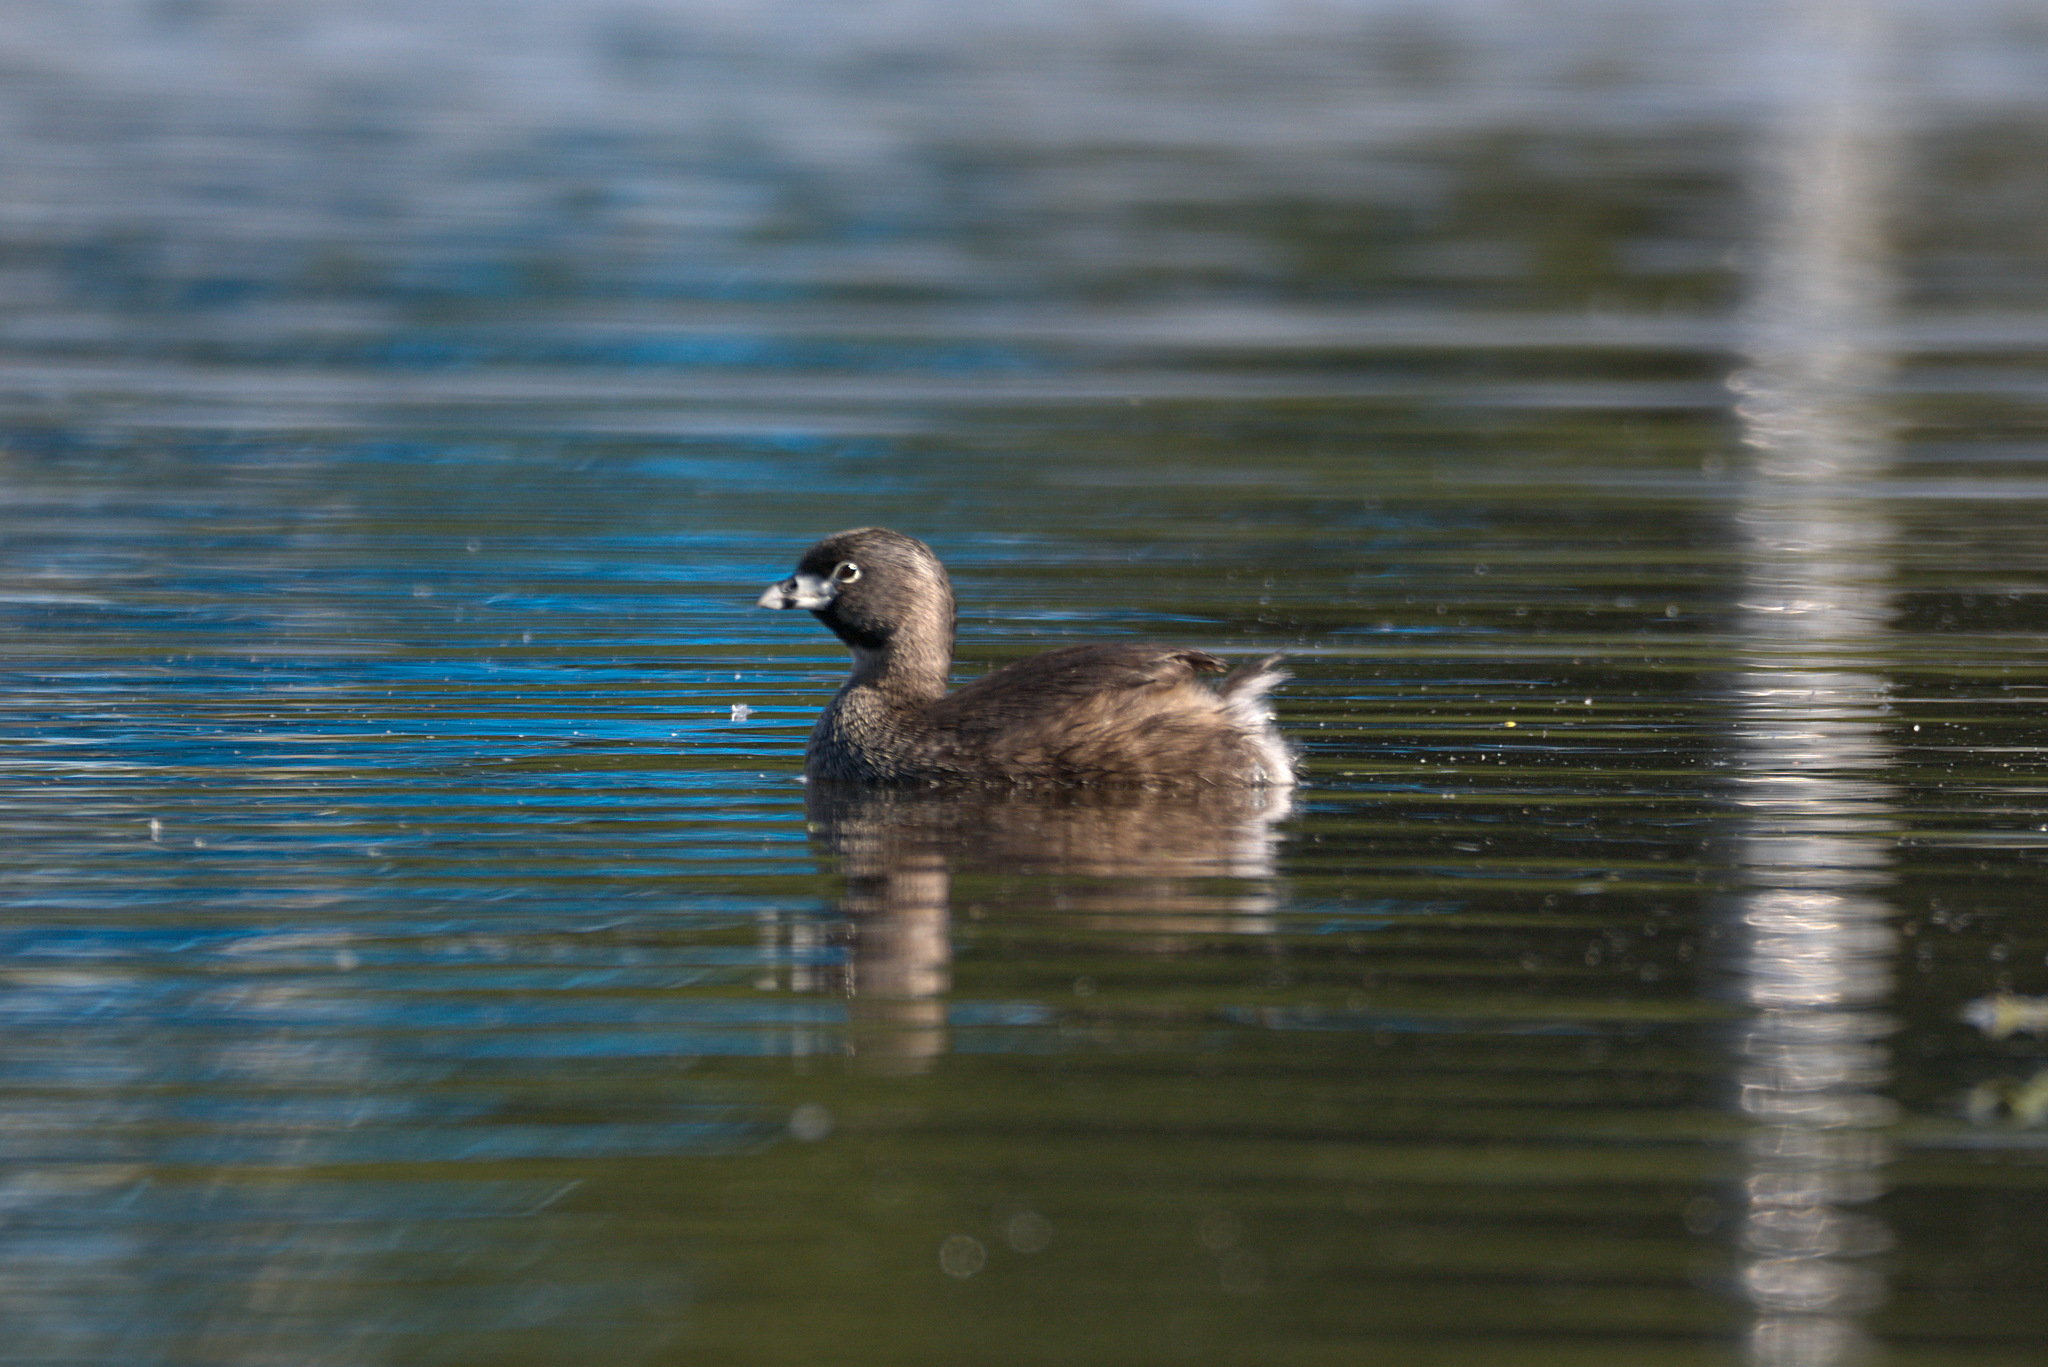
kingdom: Animalia
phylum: Chordata
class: Aves
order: Podicipediformes
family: Podicipedidae
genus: Podilymbus
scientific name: Podilymbus podiceps
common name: Pied-billed grebe
